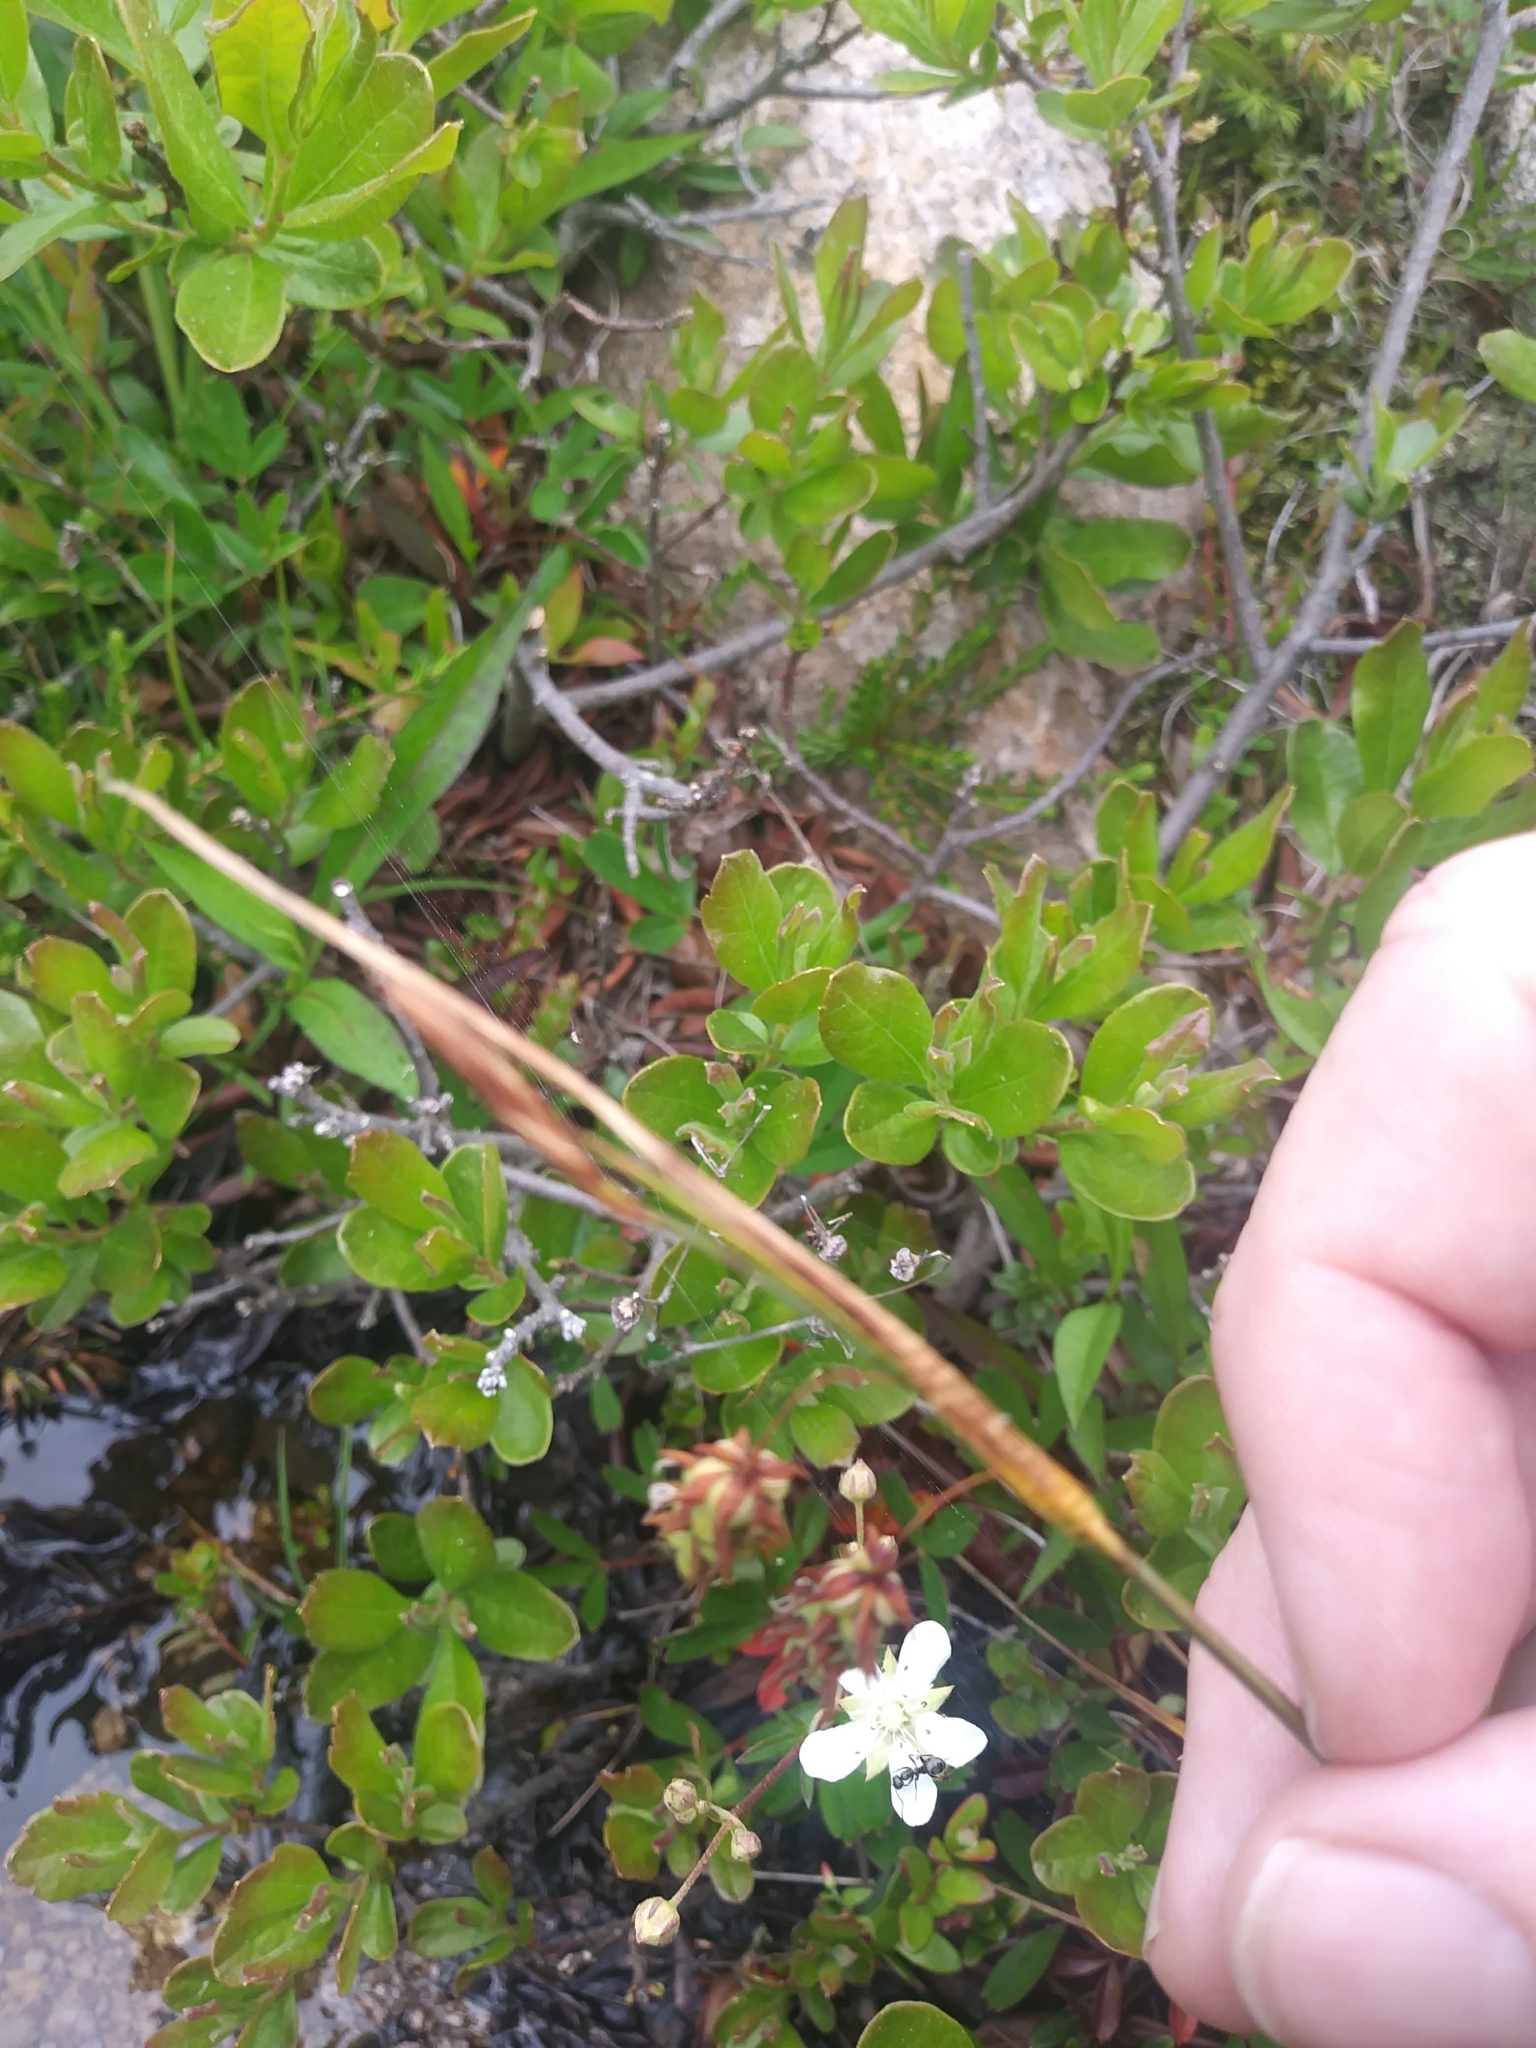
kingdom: Plantae
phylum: Tracheophyta
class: Liliopsida
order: Poales
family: Cyperaceae
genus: Carex
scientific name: Carex magellanica
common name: Bog sedge
